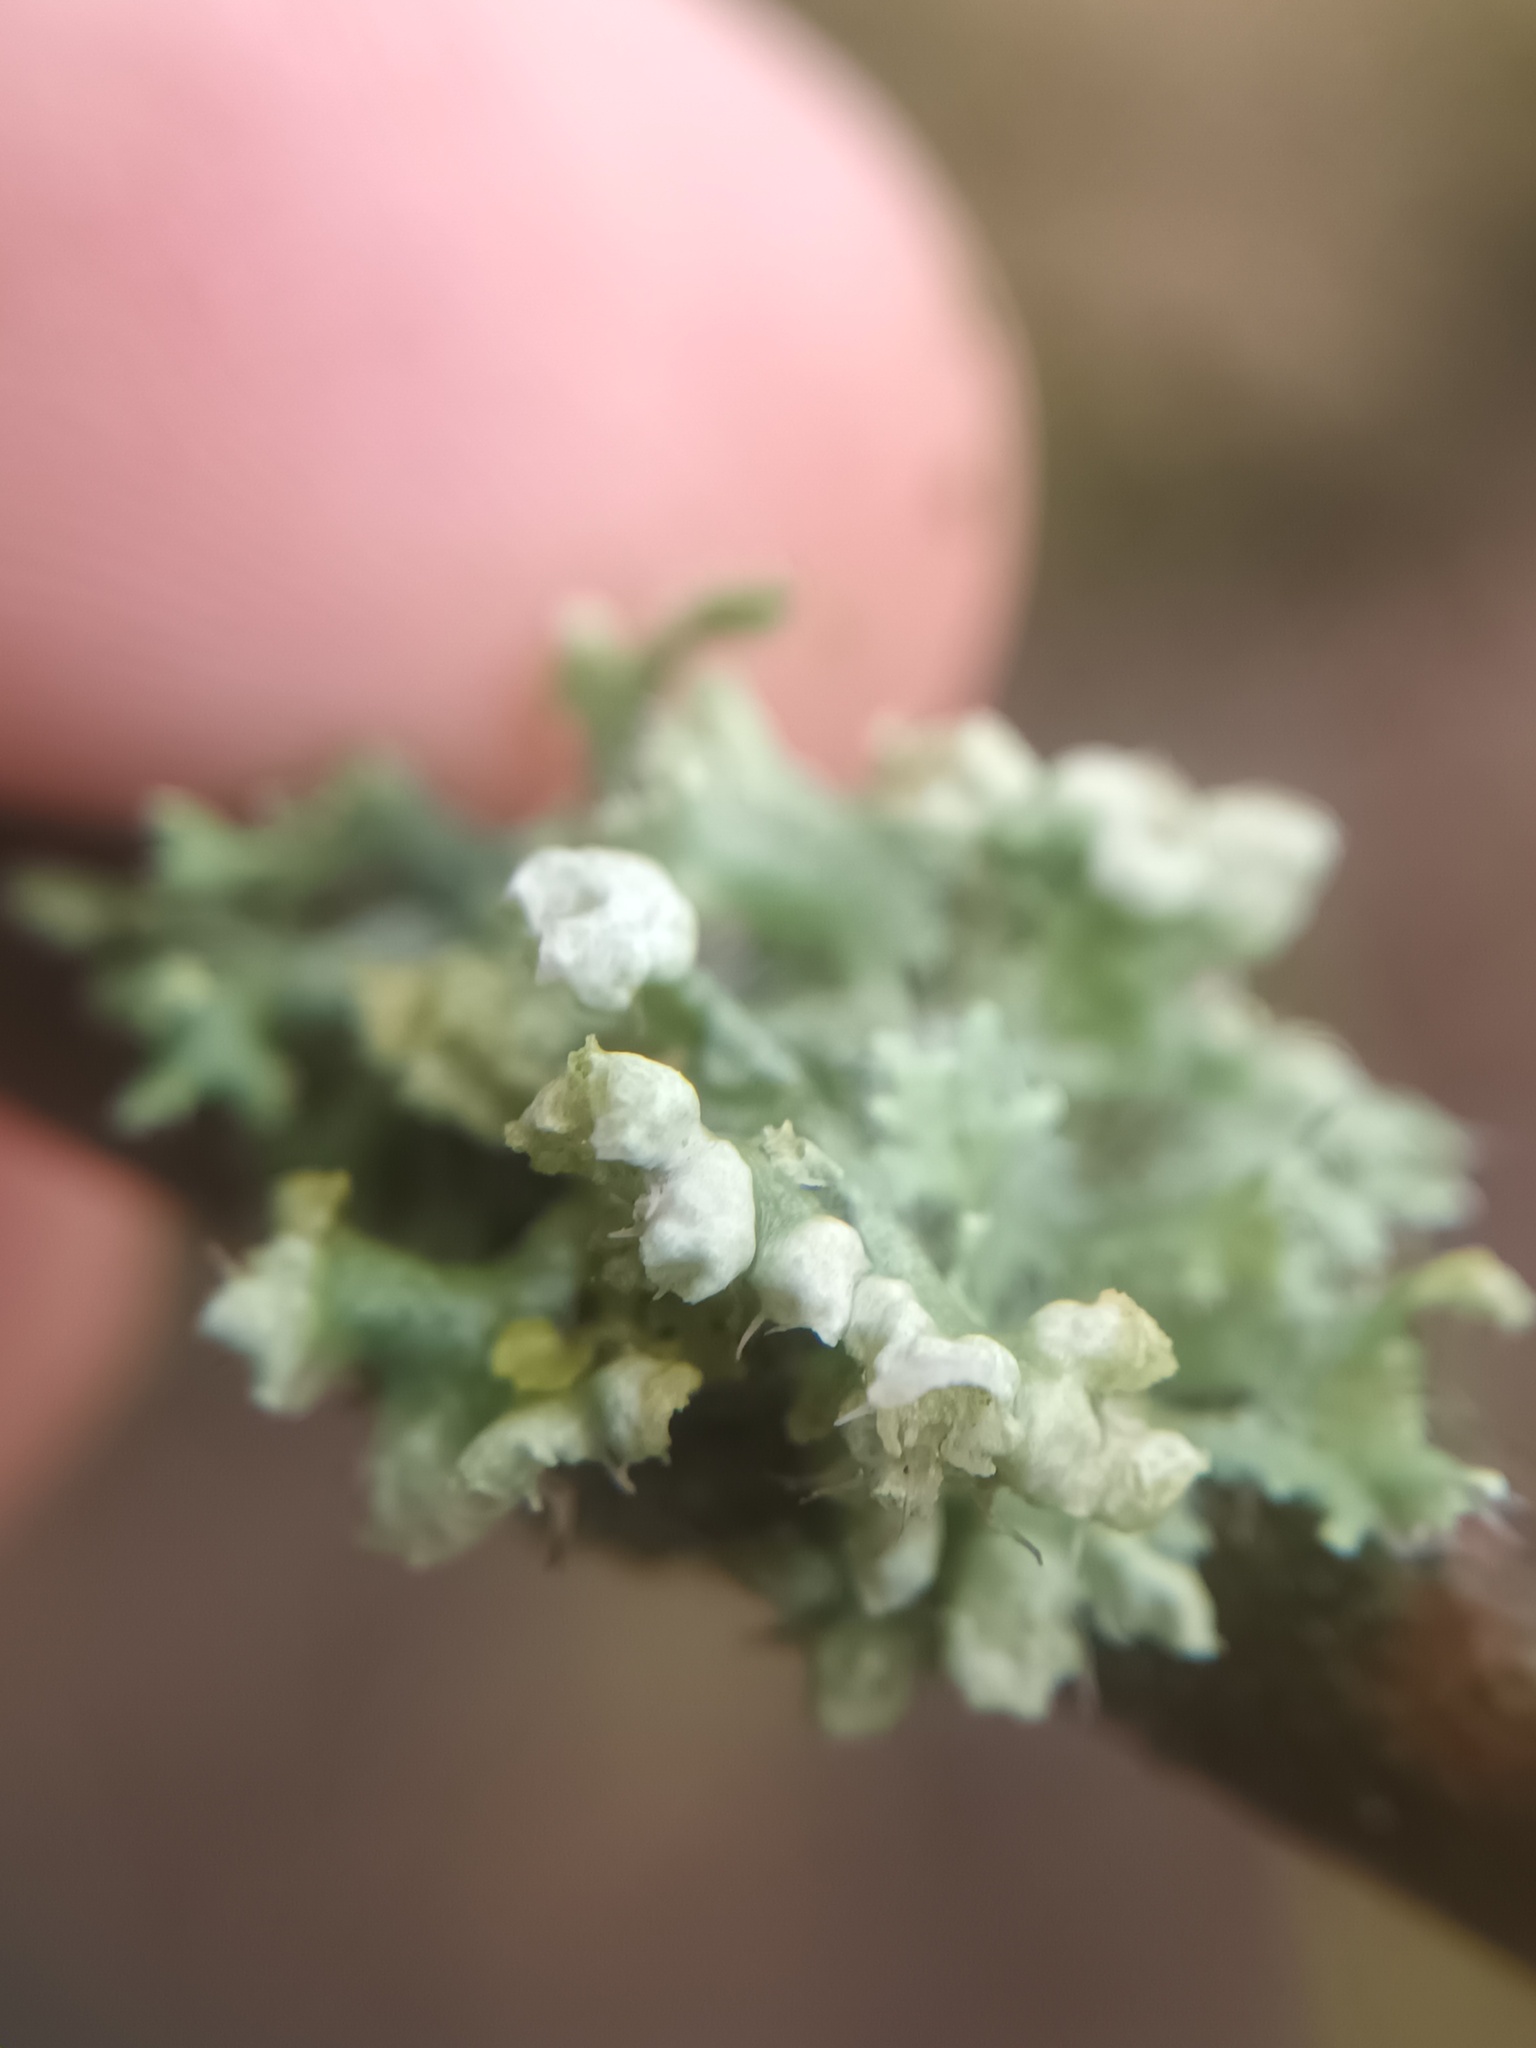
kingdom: Fungi
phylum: Ascomycota
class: Lecanoromycetes
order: Caliciales
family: Physciaceae
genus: Physcia
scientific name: Physcia adscendens
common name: Hooded rosette lichen
